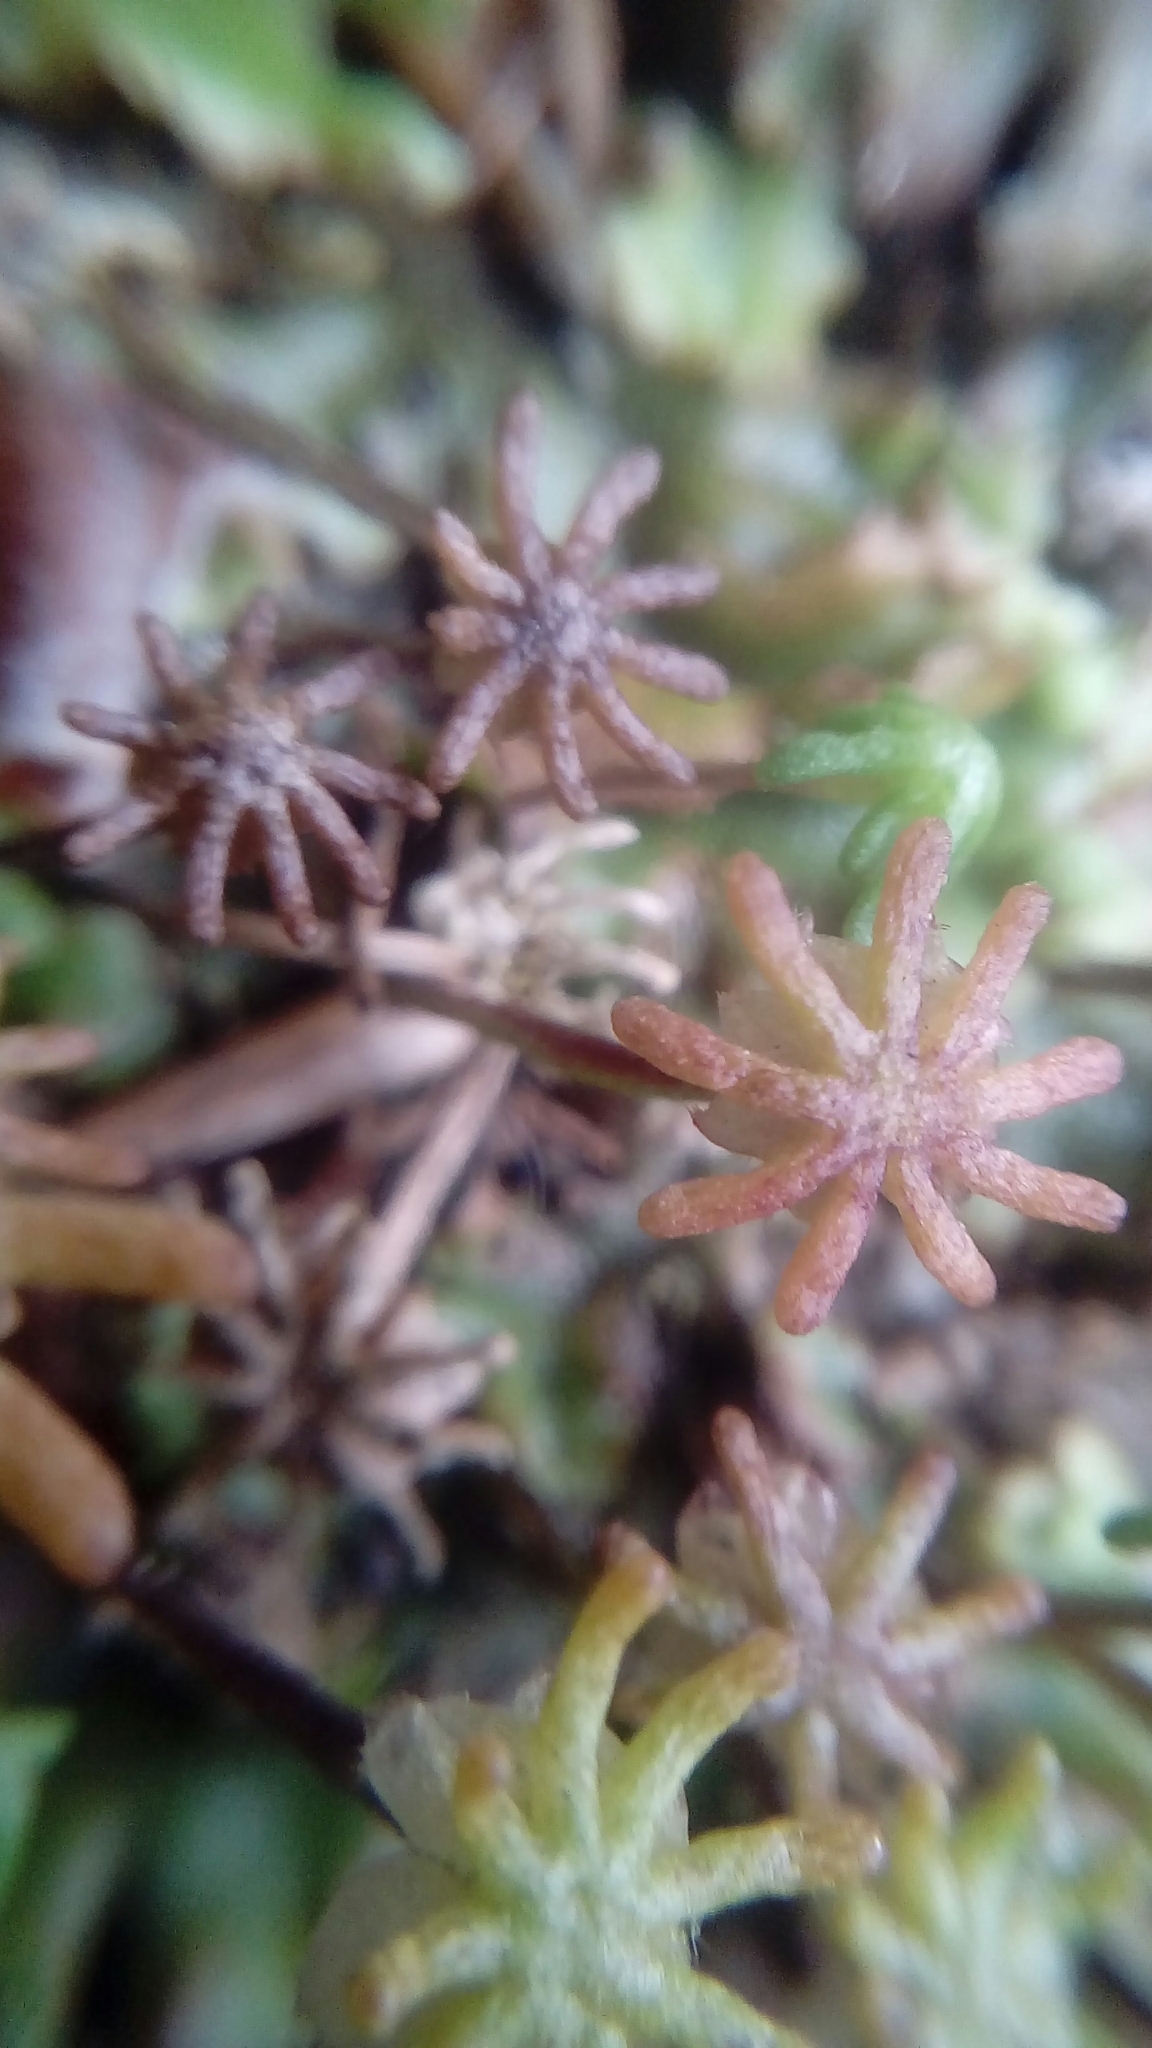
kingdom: Plantae
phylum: Marchantiophyta
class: Marchantiopsida
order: Marchantiales
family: Marchantiaceae
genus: Marchantia
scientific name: Marchantia polymorpha
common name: Common liverwort
